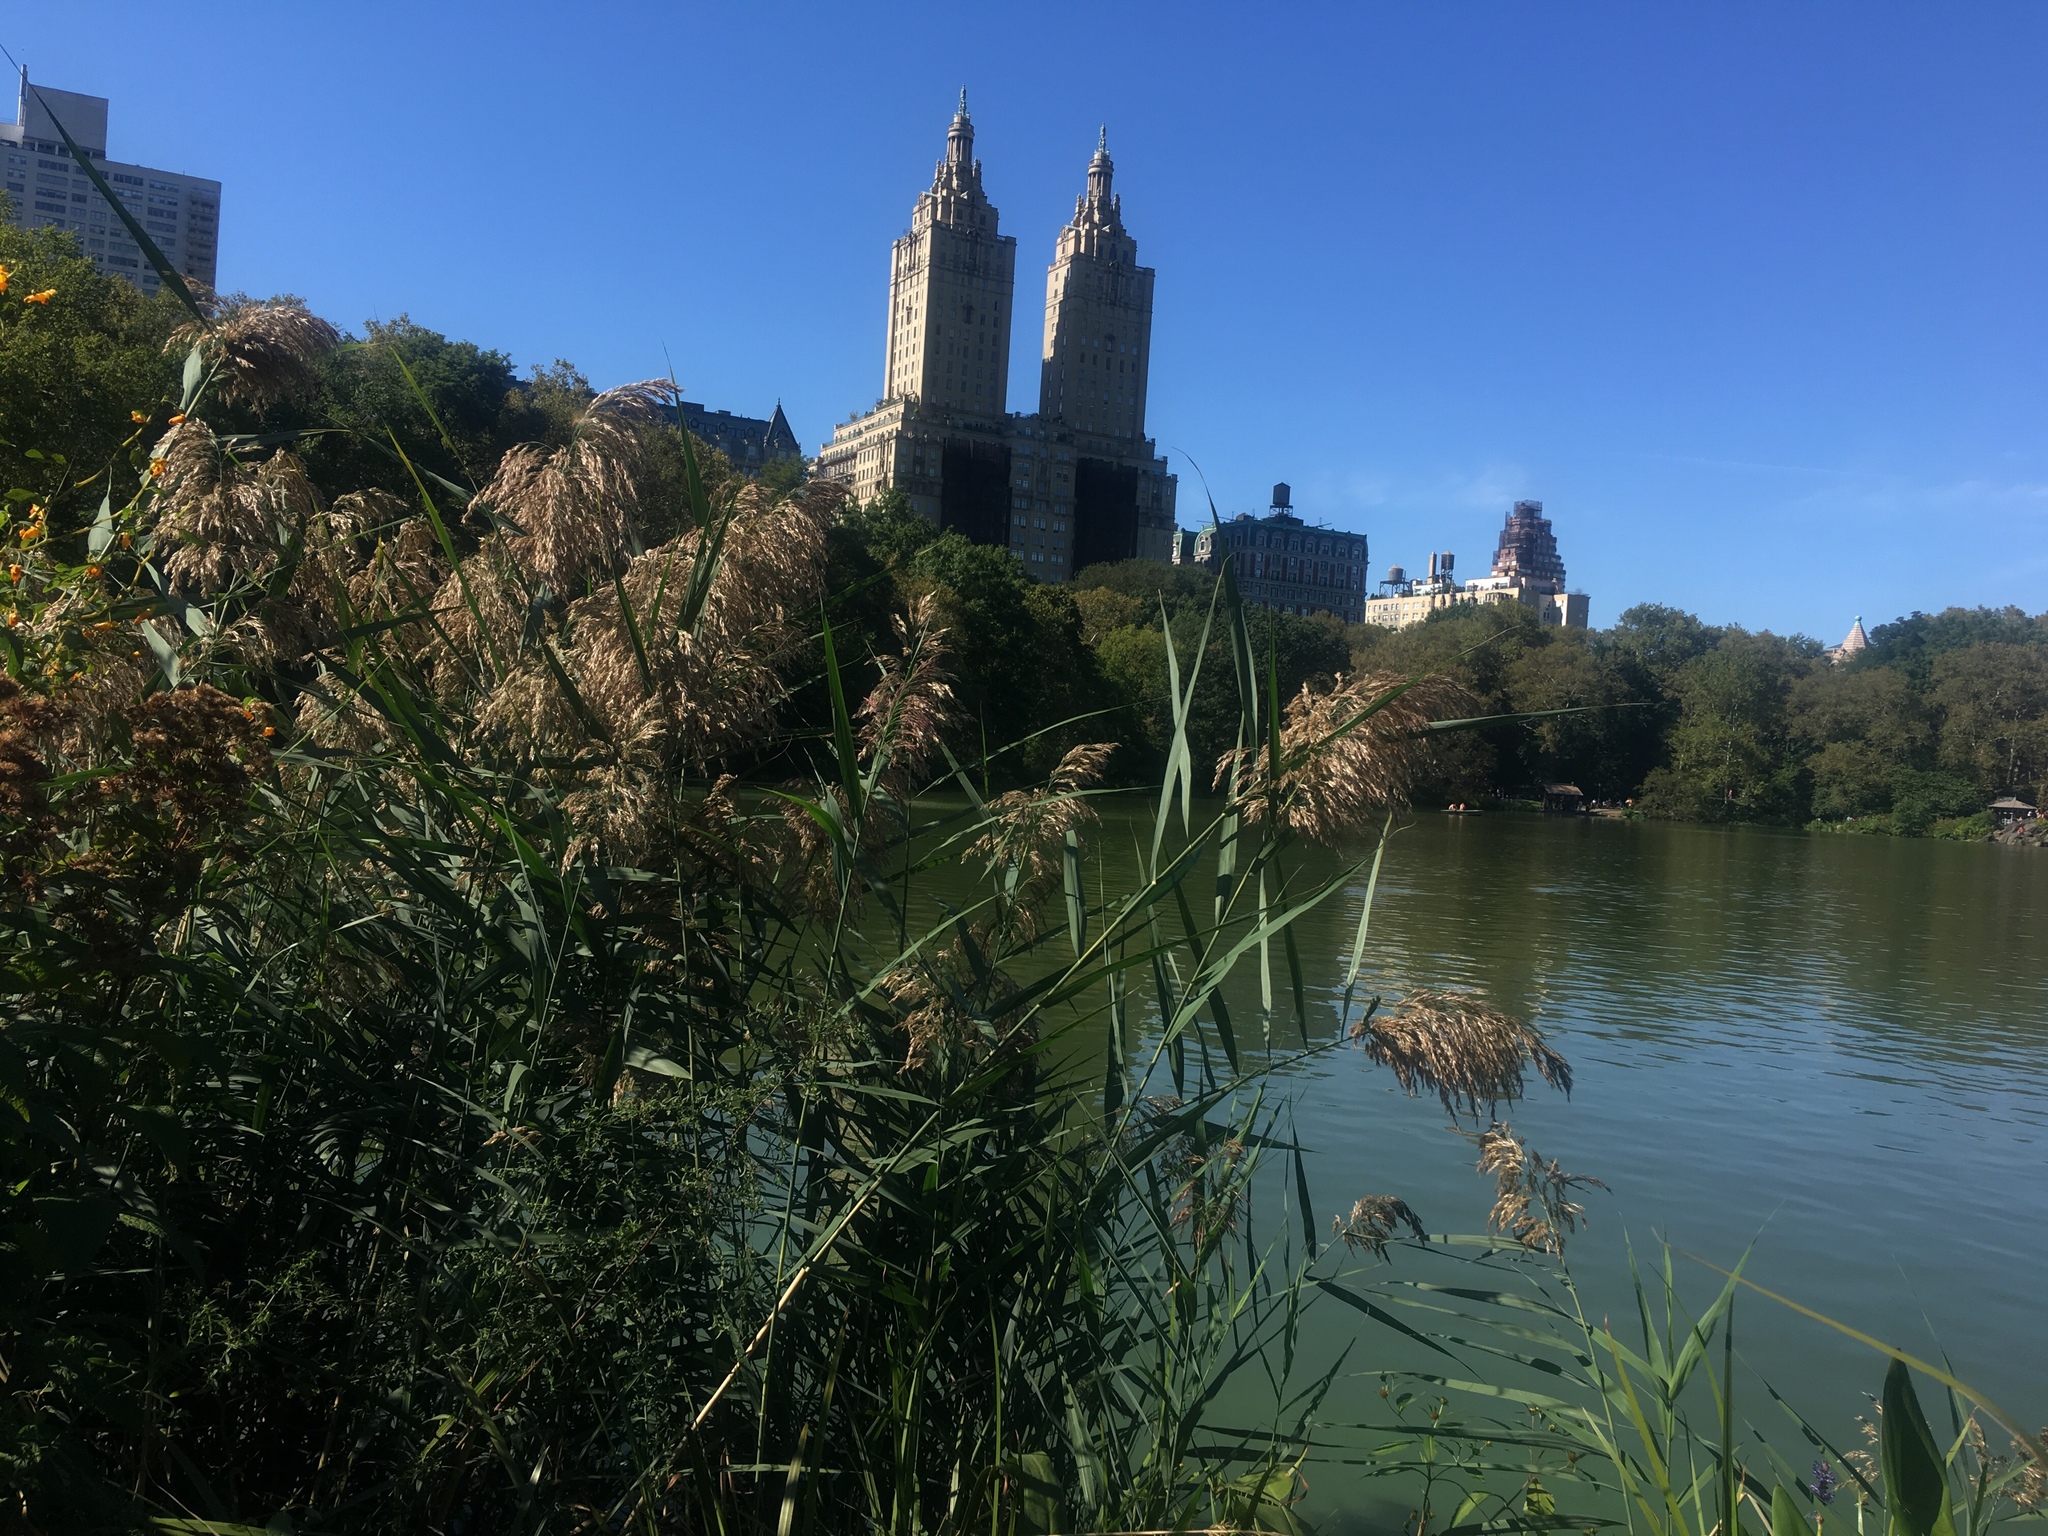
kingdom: Plantae
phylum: Tracheophyta
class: Liliopsida
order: Poales
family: Poaceae
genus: Phragmites
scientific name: Phragmites australis
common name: Common reed
